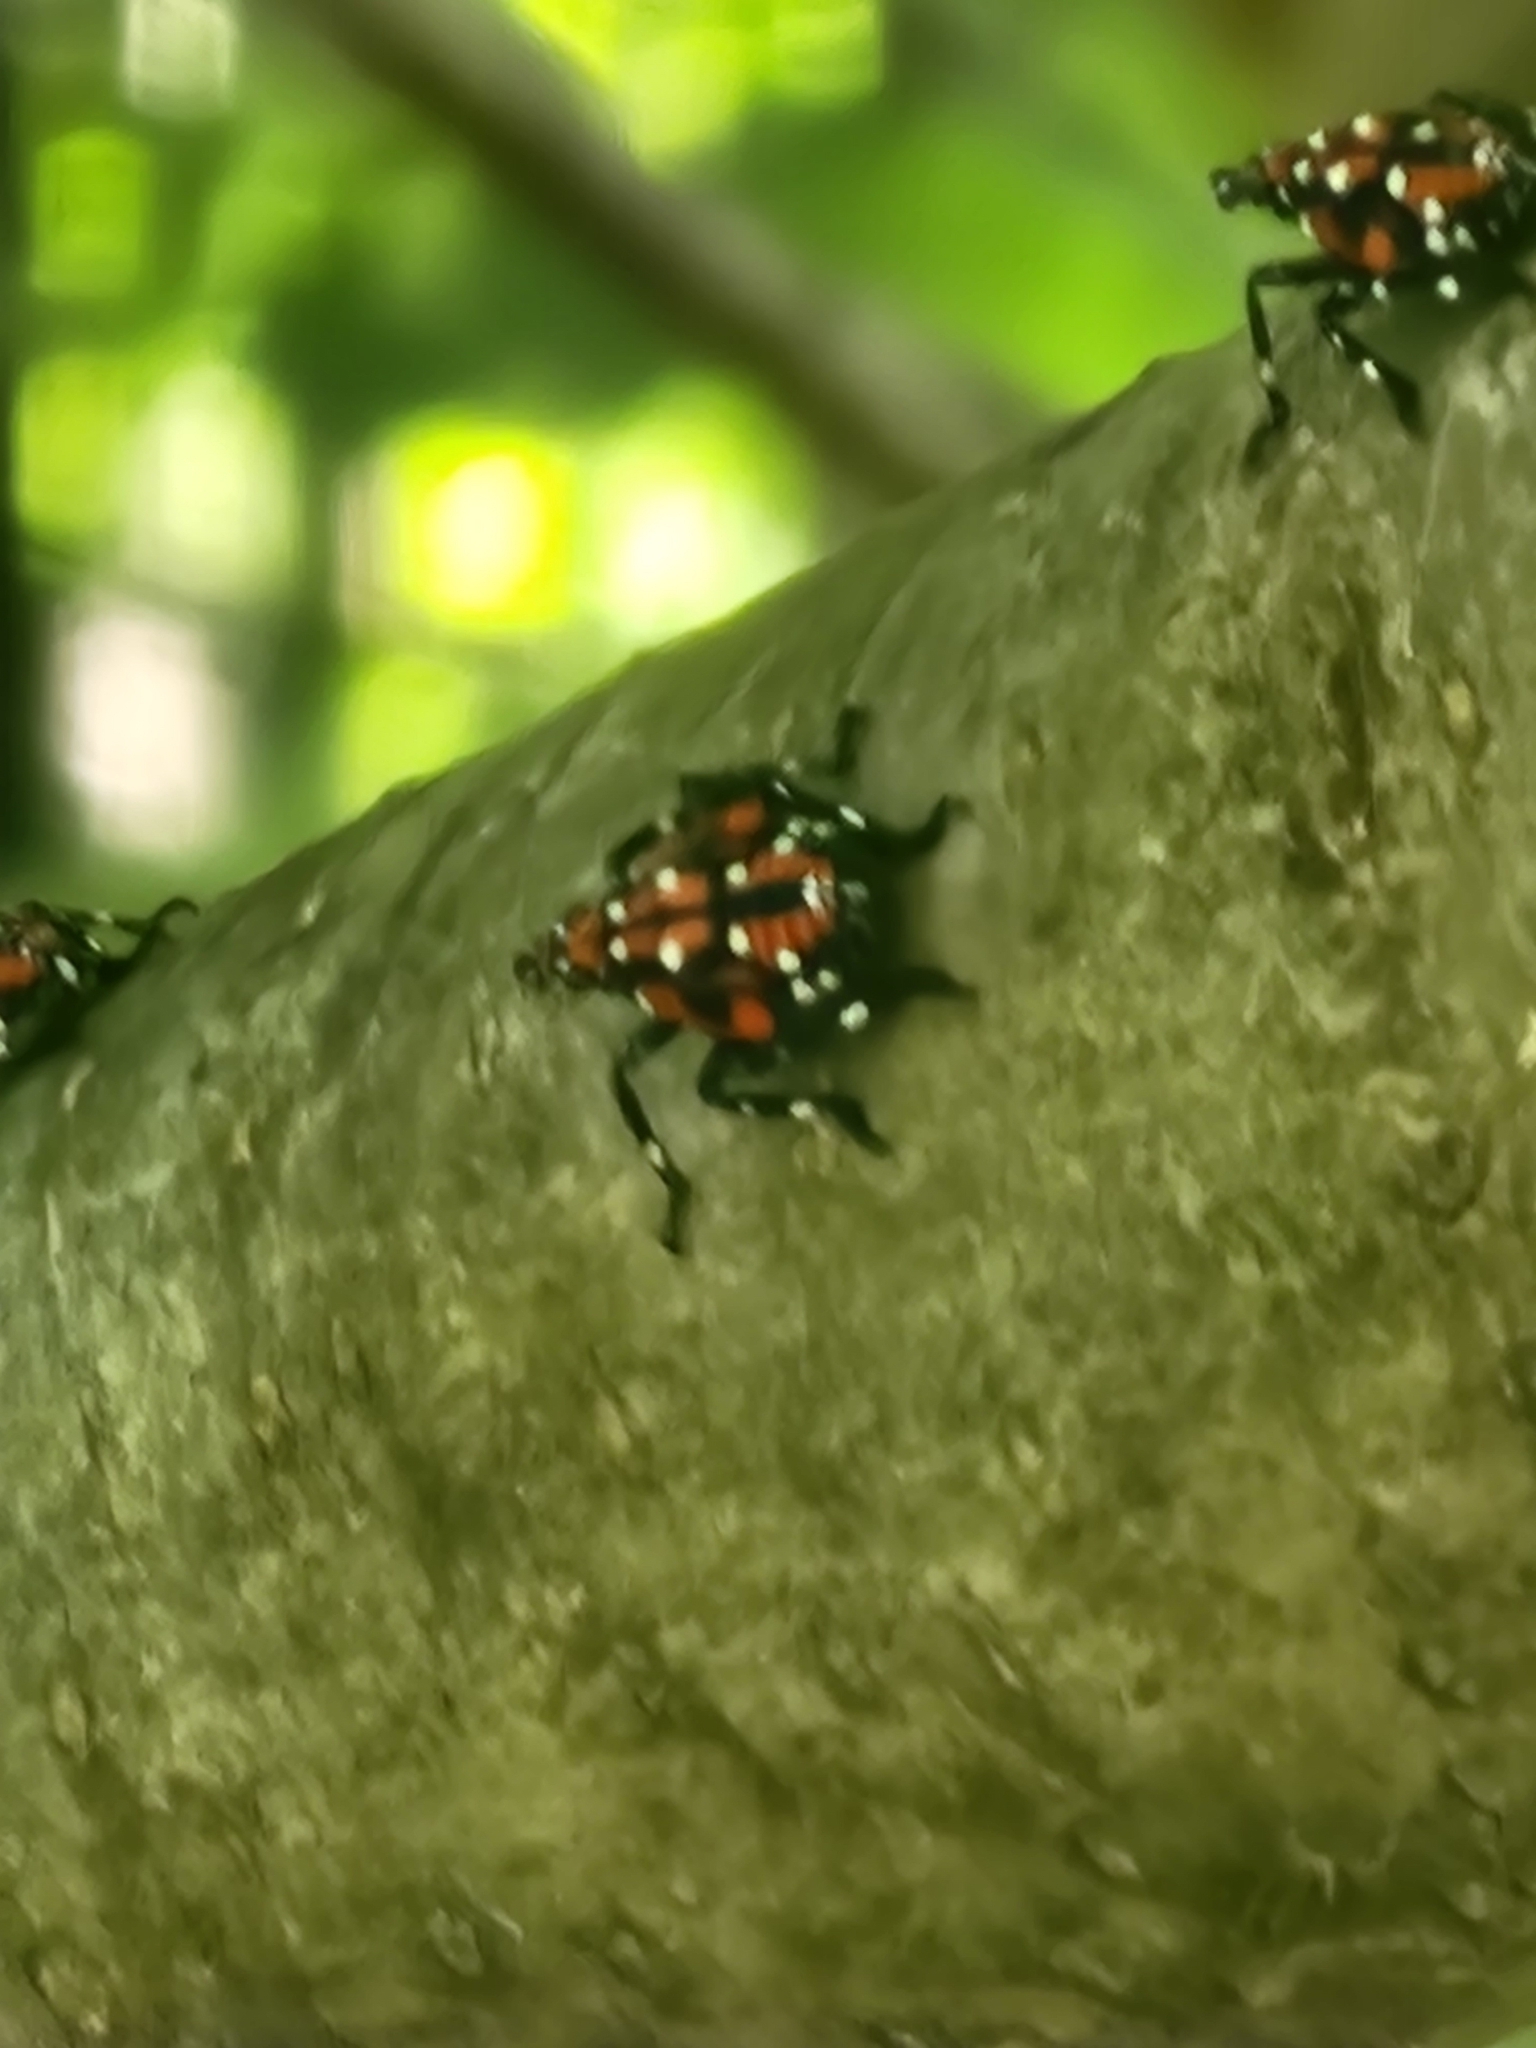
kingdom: Animalia
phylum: Arthropoda
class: Insecta
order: Hemiptera
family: Fulgoridae
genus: Lycorma
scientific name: Lycorma delicatula
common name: Spotted lanternfly
